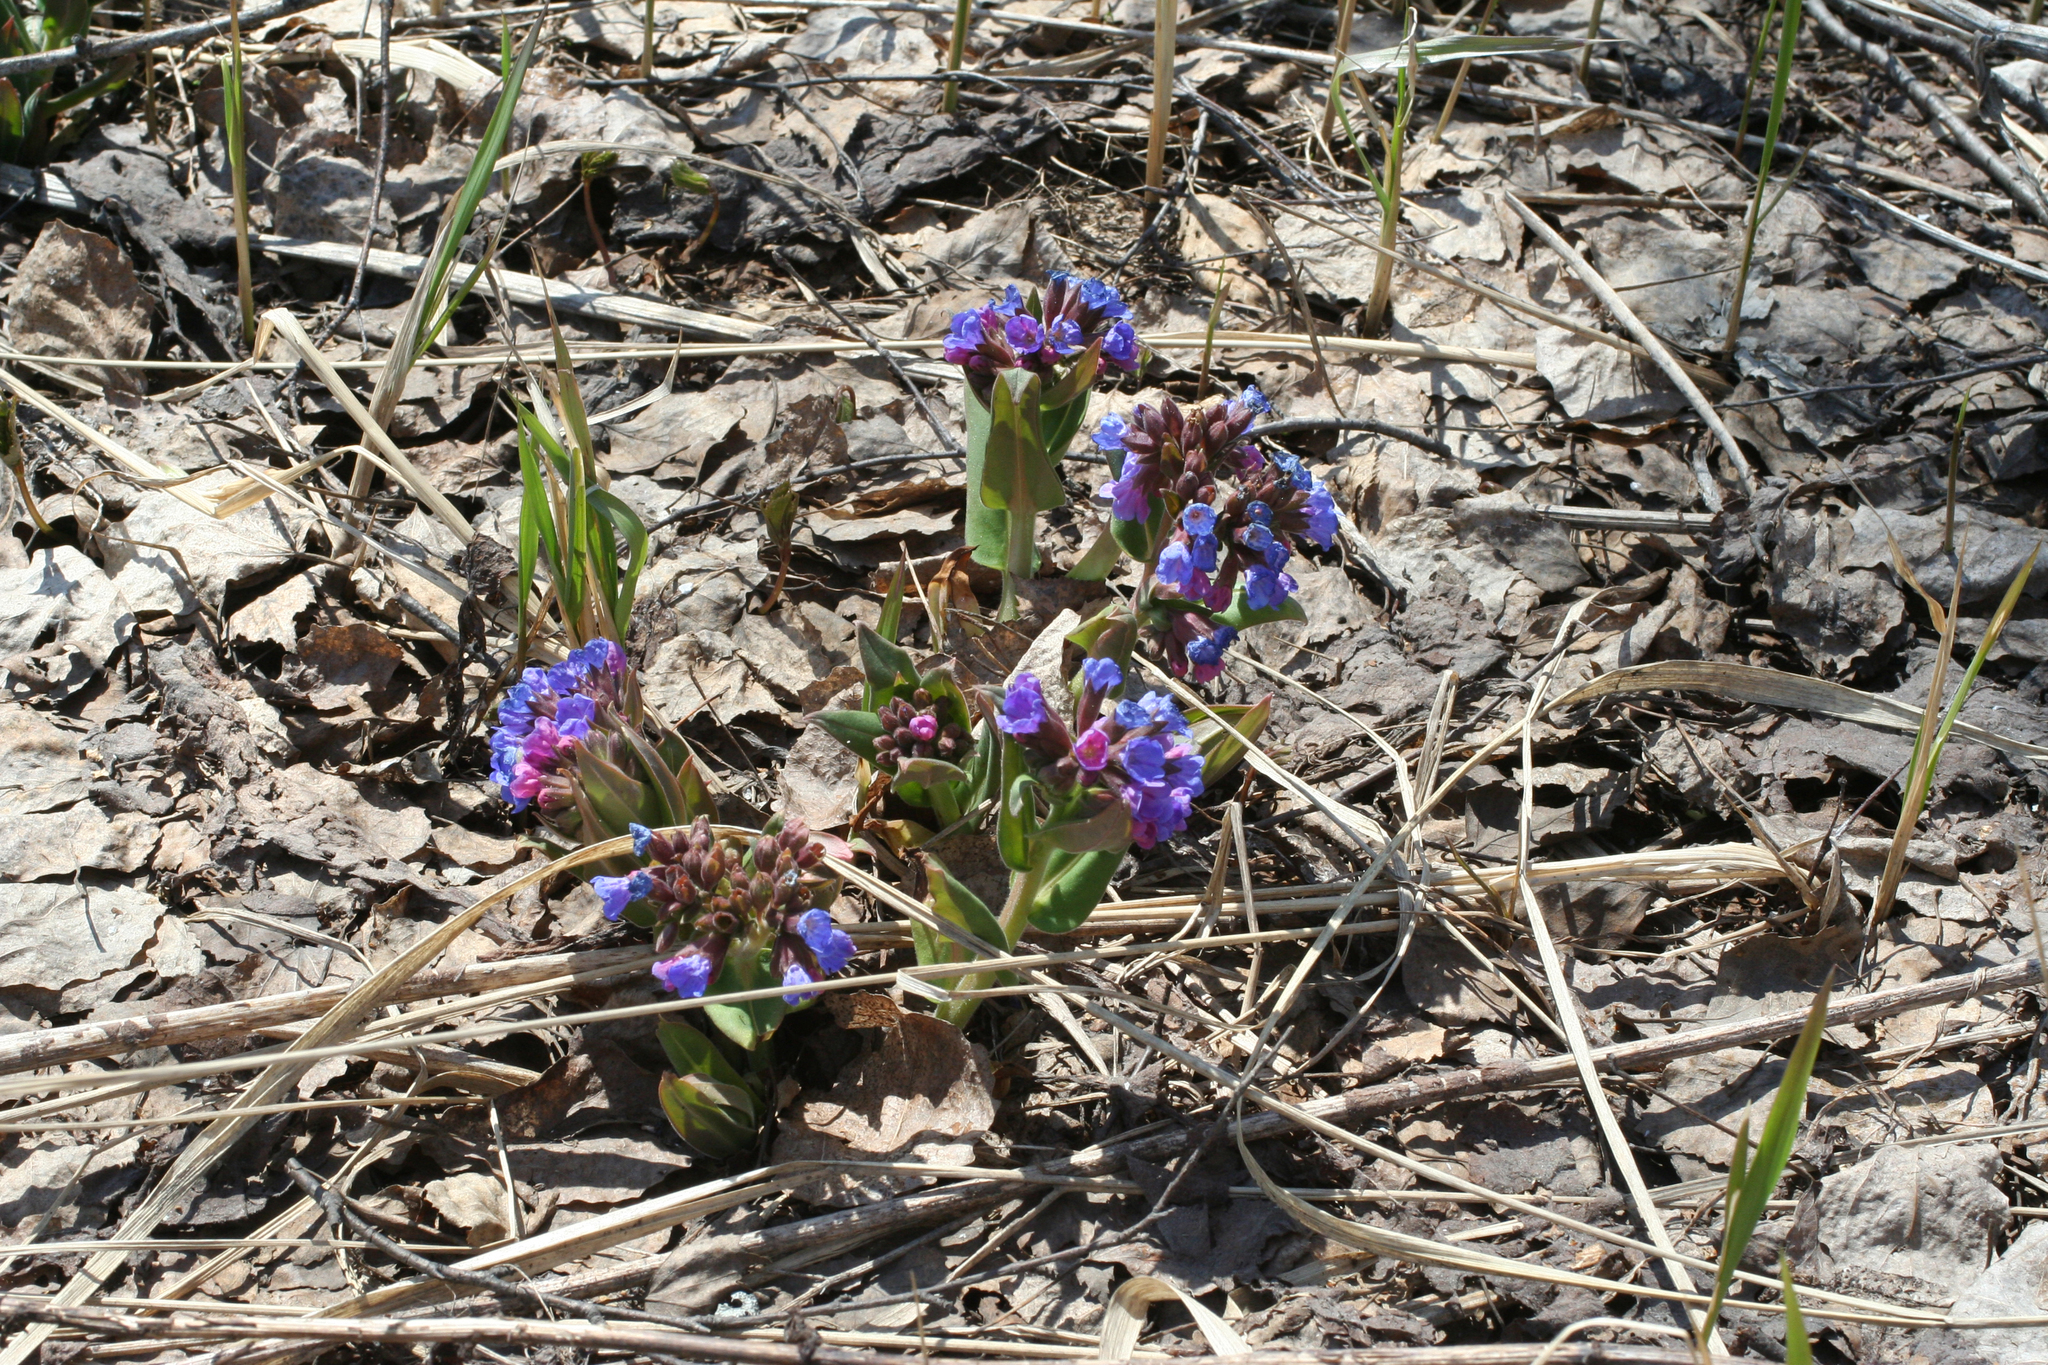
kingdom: Plantae
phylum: Tracheophyta
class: Magnoliopsida
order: Boraginales
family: Boraginaceae
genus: Pulmonaria
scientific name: Pulmonaria mollis
